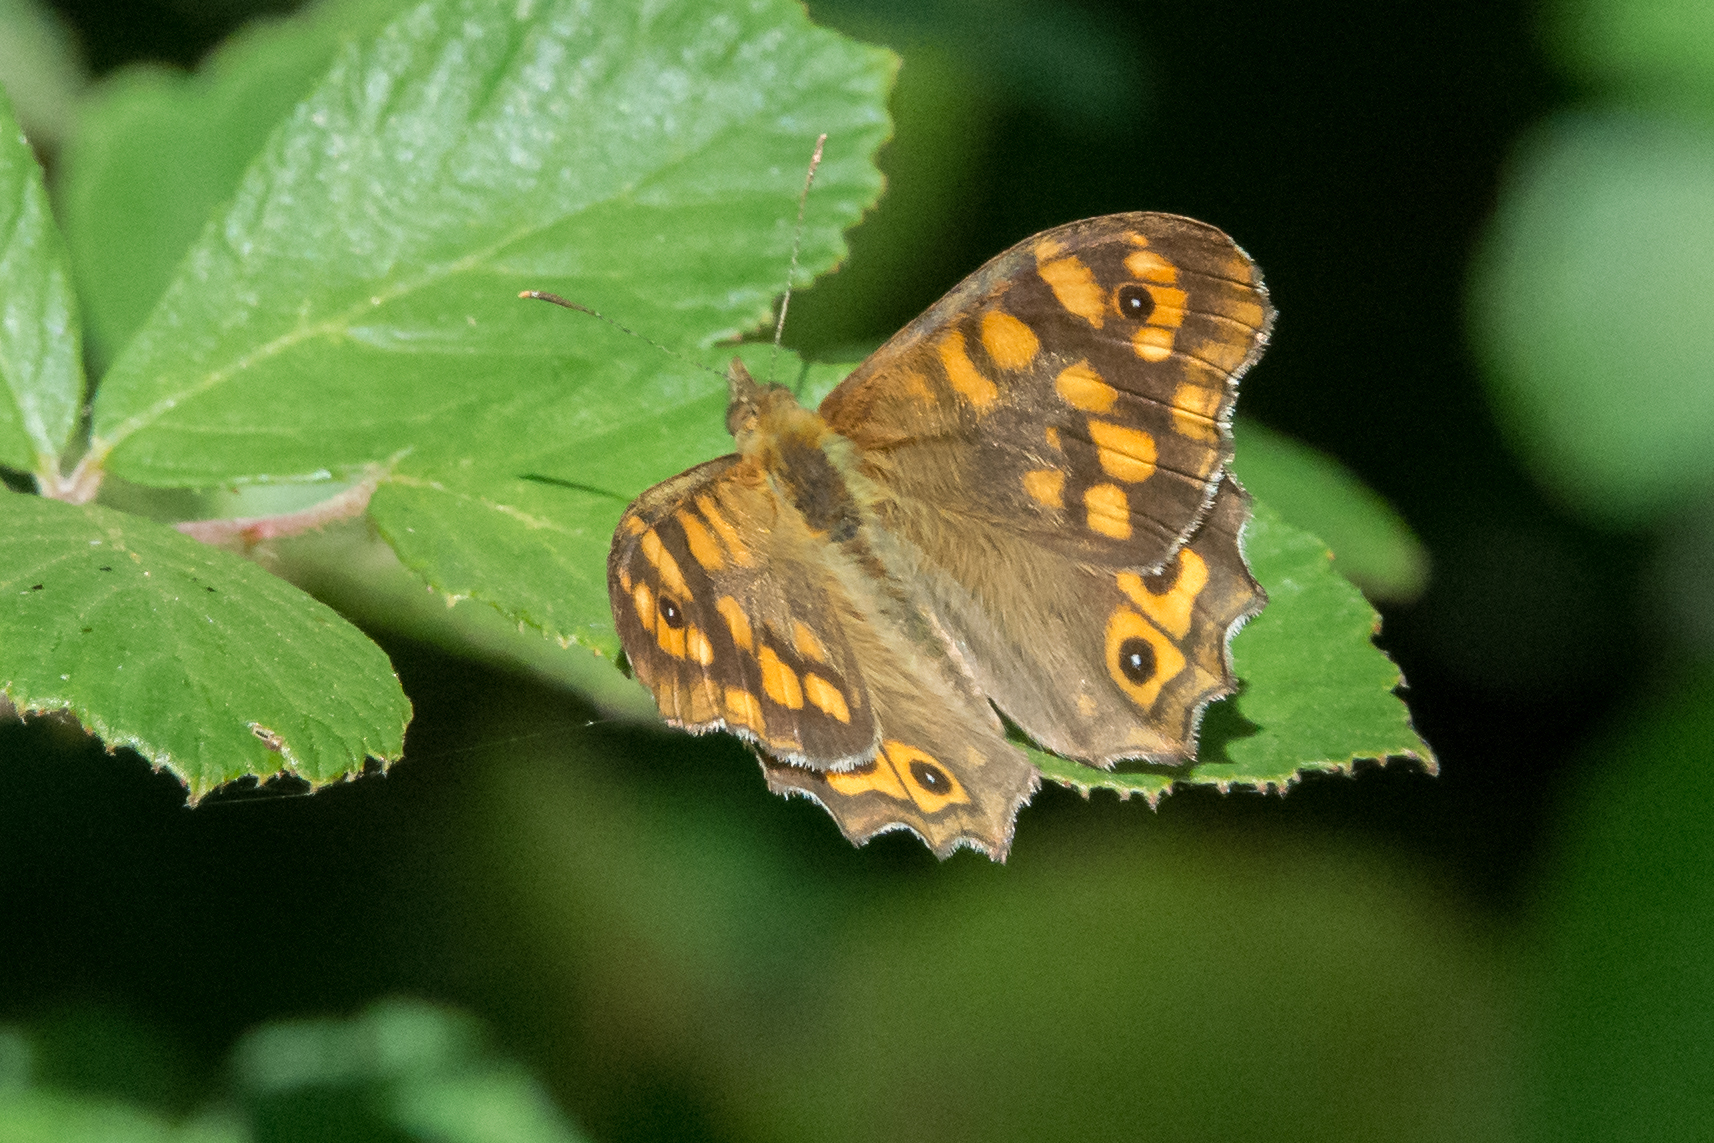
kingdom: Animalia
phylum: Arthropoda
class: Insecta
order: Lepidoptera
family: Nymphalidae
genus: Pararge
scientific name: Pararge aegeria
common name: Speckled wood
